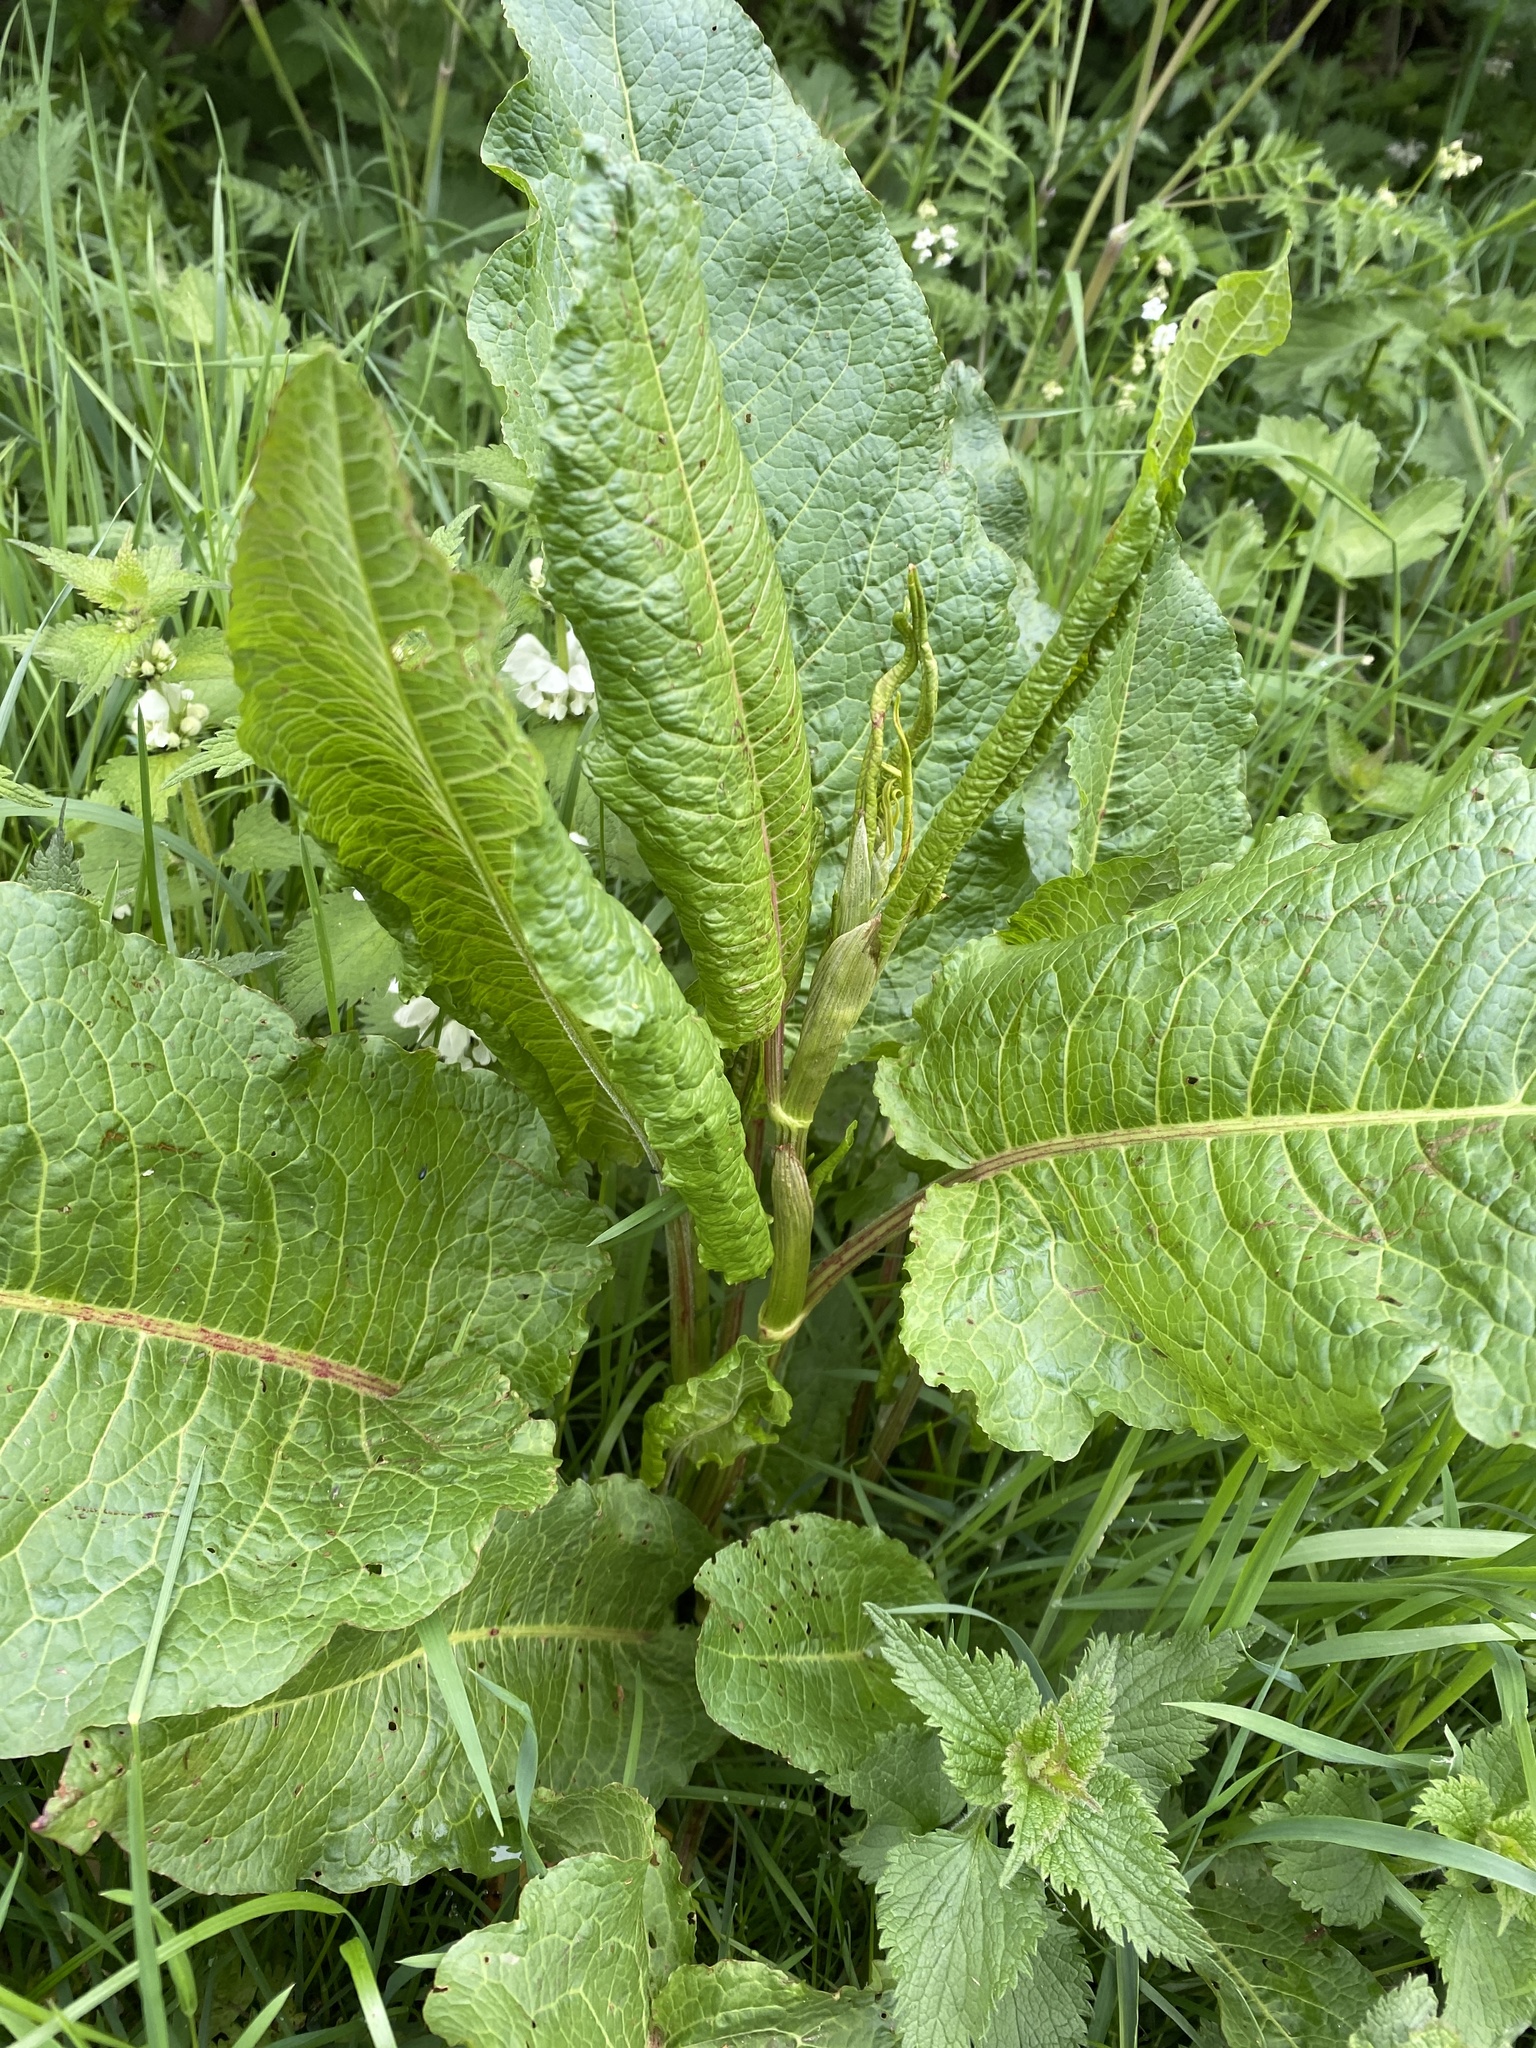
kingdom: Plantae
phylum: Tracheophyta
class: Magnoliopsida
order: Caryophyllales
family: Polygonaceae
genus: Rumex
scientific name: Rumex obtusifolius
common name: Bitter dock
